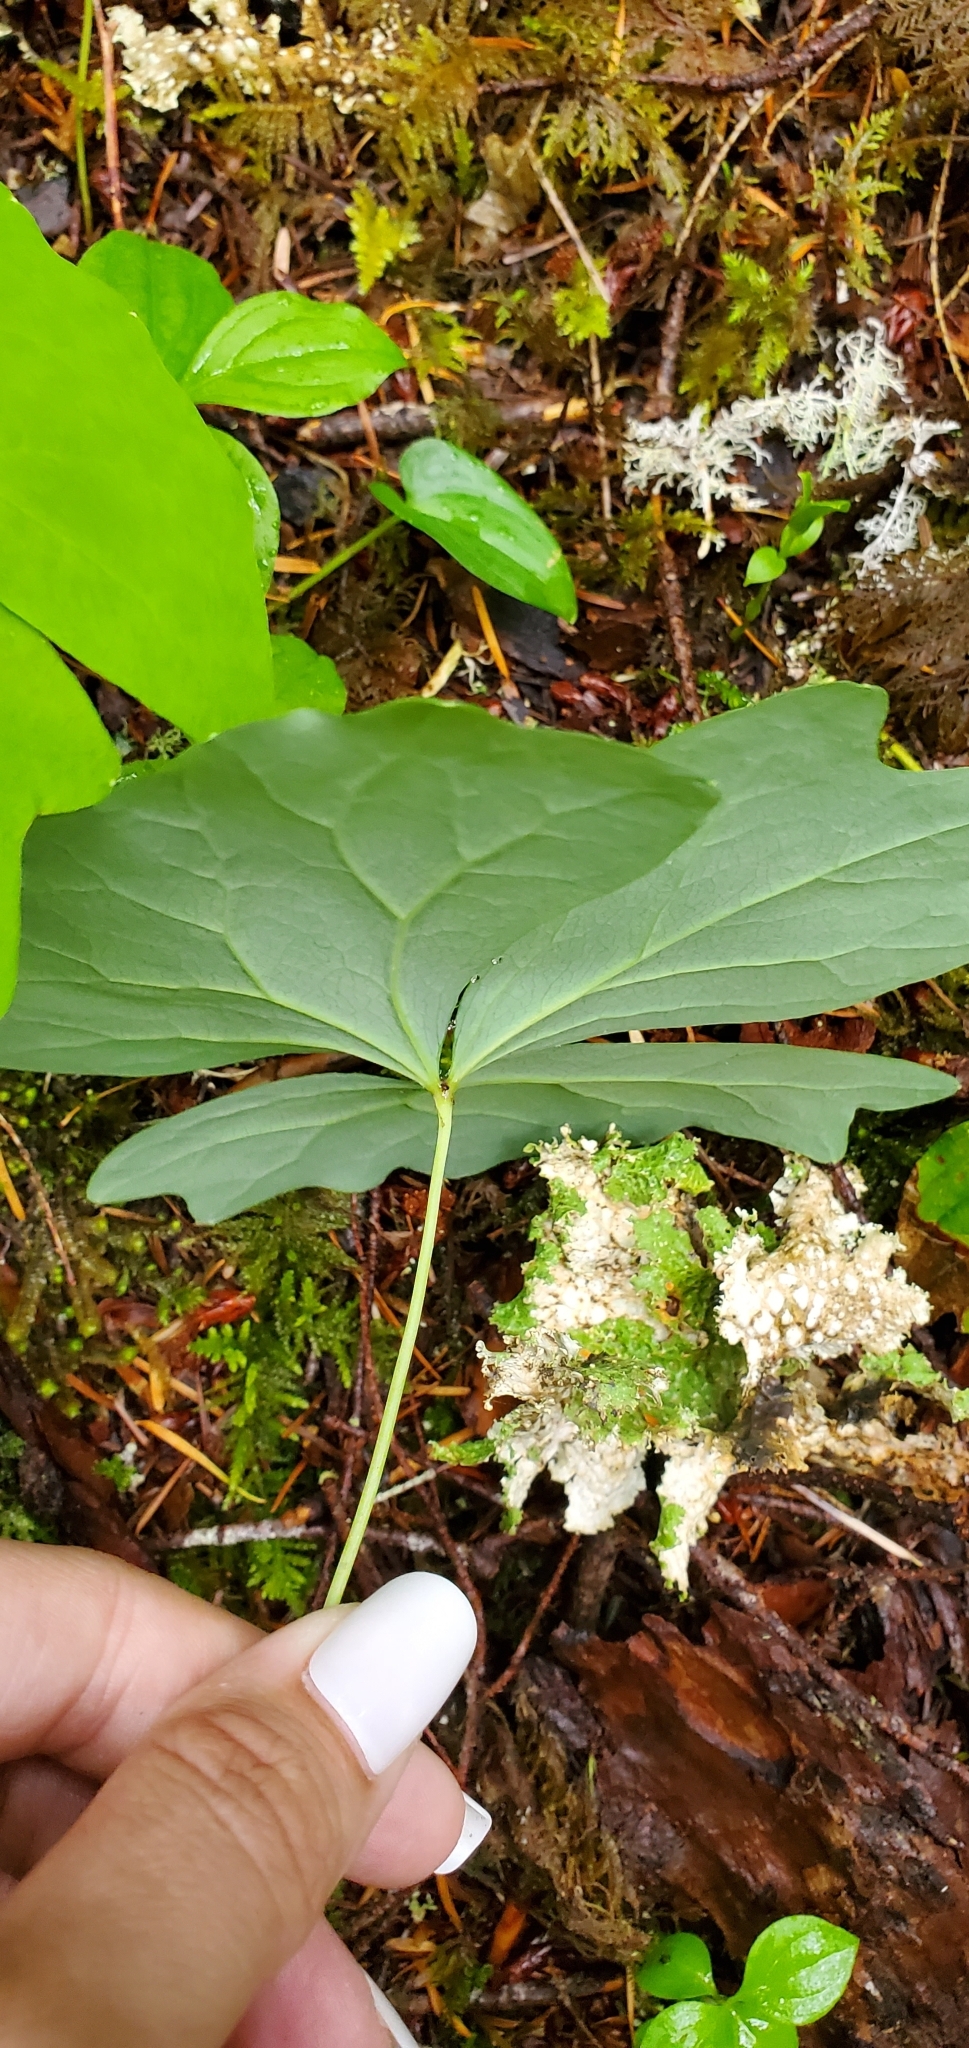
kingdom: Plantae
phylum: Tracheophyta
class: Magnoliopsida
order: Ranunculales
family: Berberidaceae
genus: Achlys
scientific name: Achlys triphylla
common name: Vanilla-leaf
